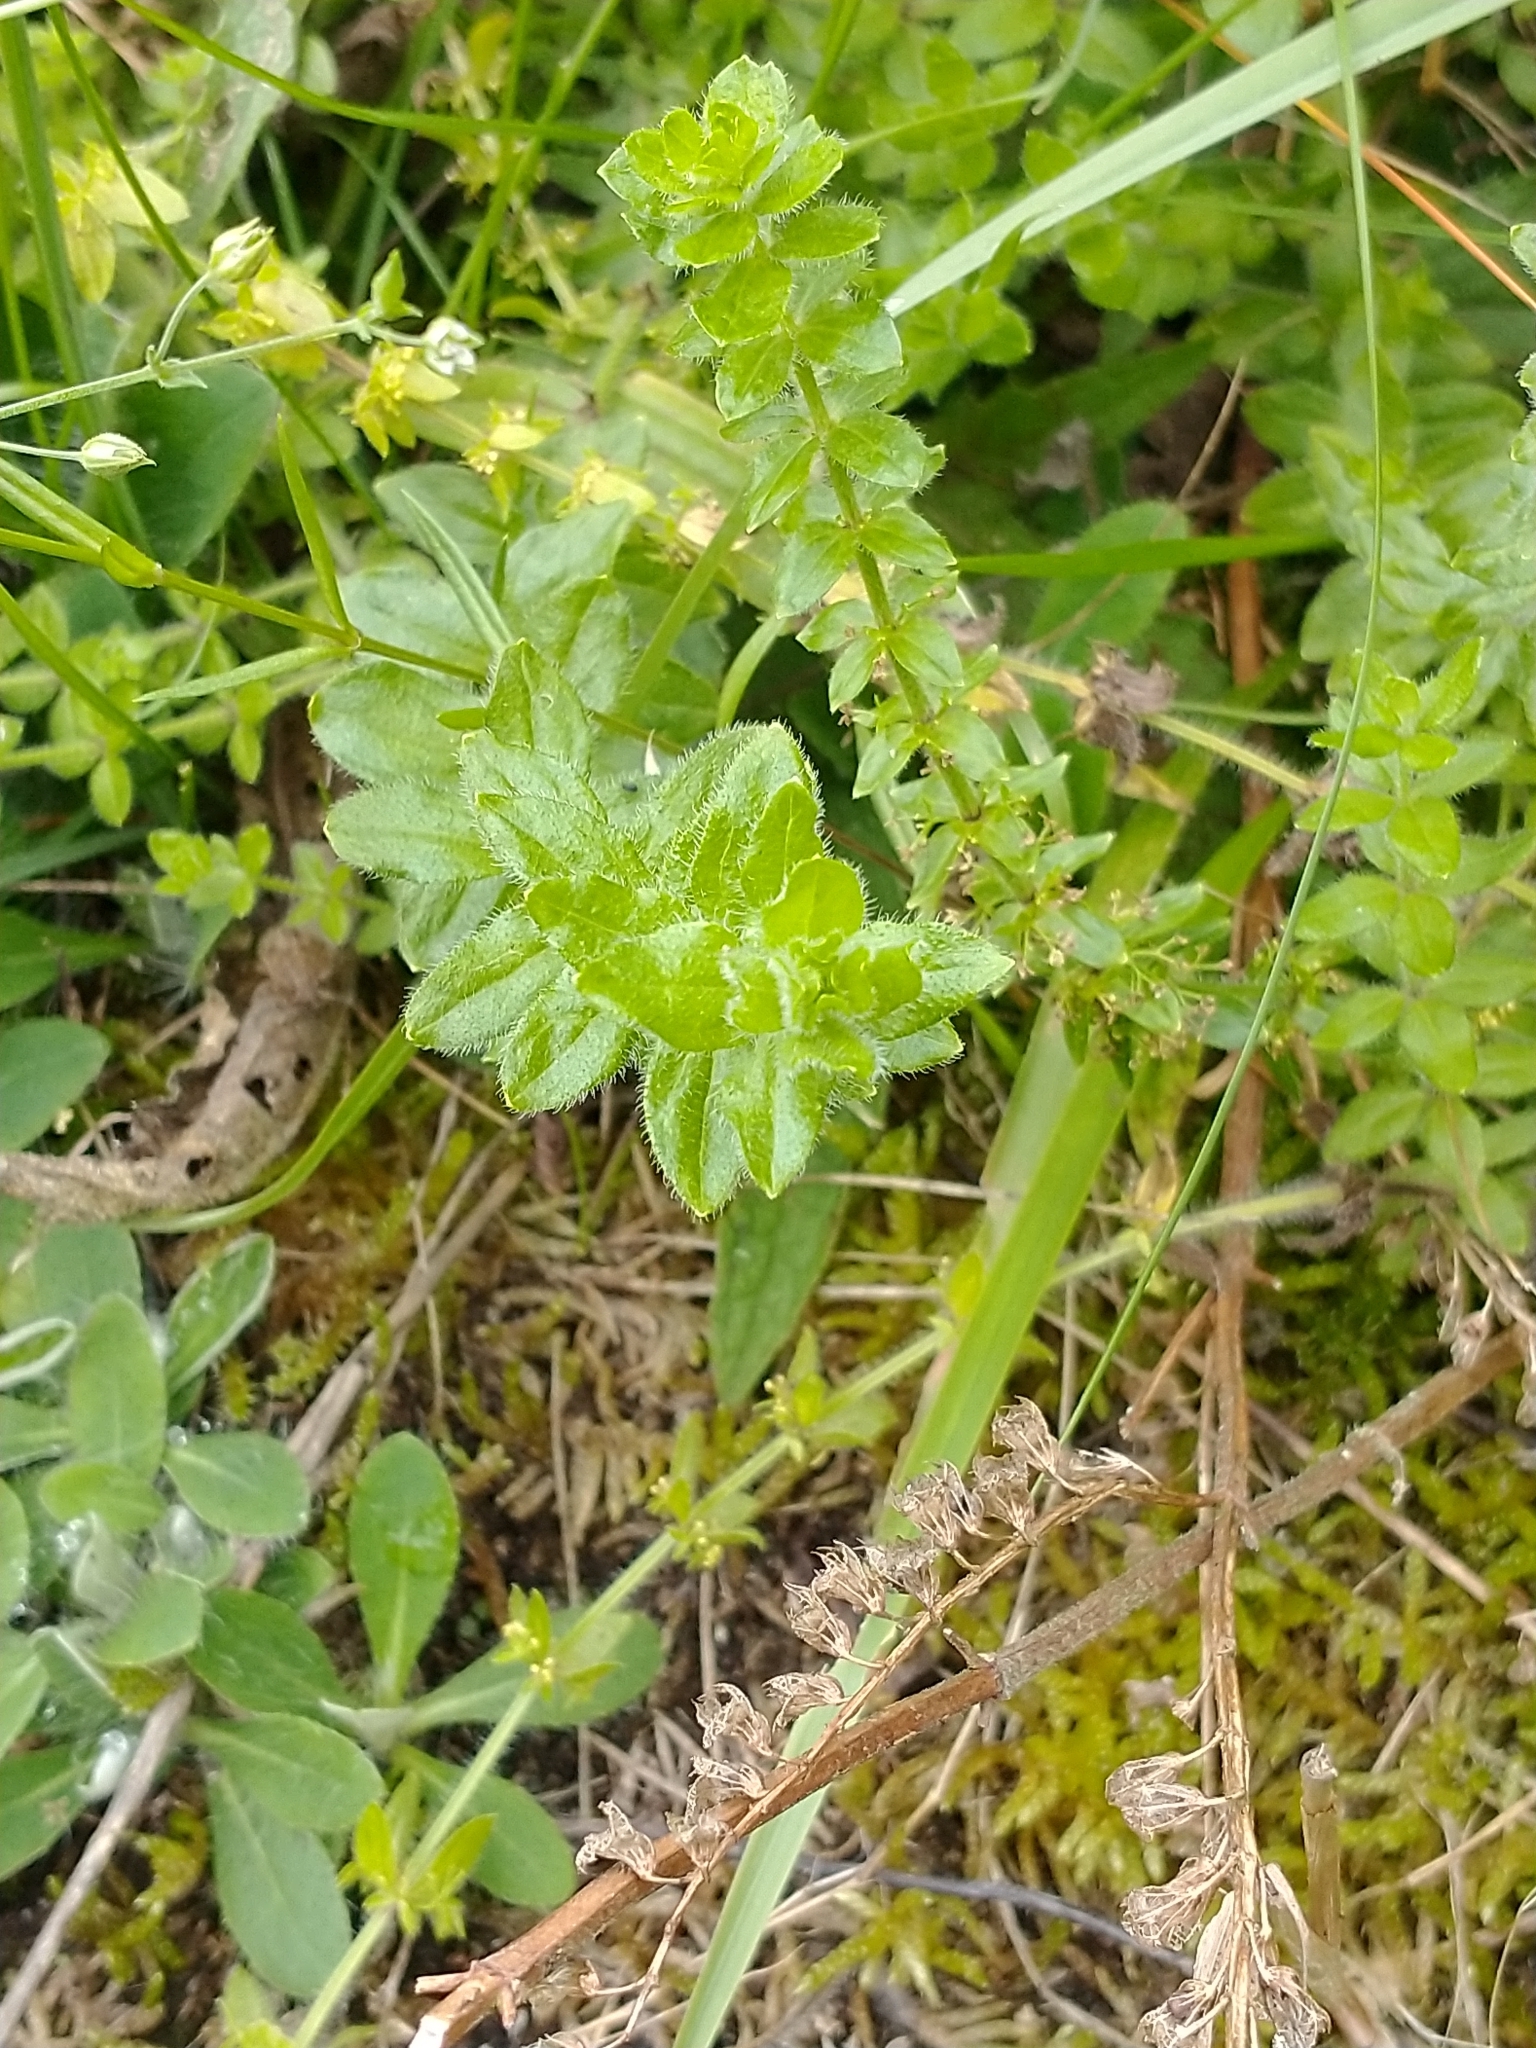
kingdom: Plantae
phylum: Tracheophyta
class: Magnoliopsida
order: Gentianales
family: Rubiaceae
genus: Cruciata
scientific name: Cruciata laevipes
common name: Crosswort
